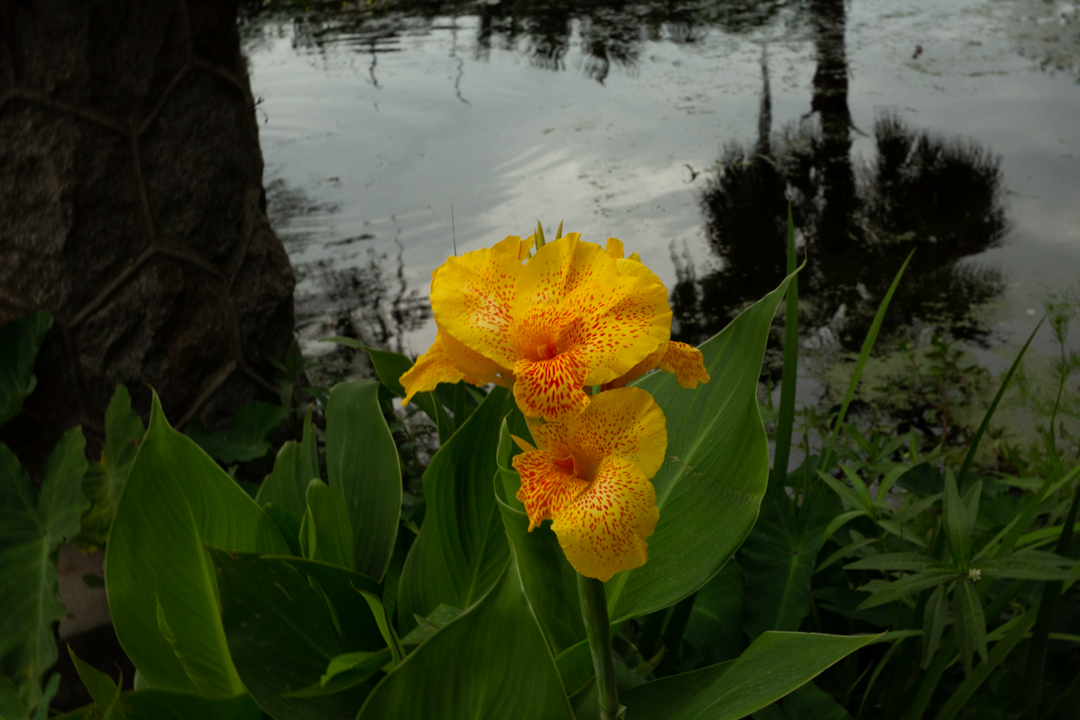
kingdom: Plantae
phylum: Tracheophyta
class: Liliopsida
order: Zingiberales
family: Cannaceae
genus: Canna
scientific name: Canna hybrida
